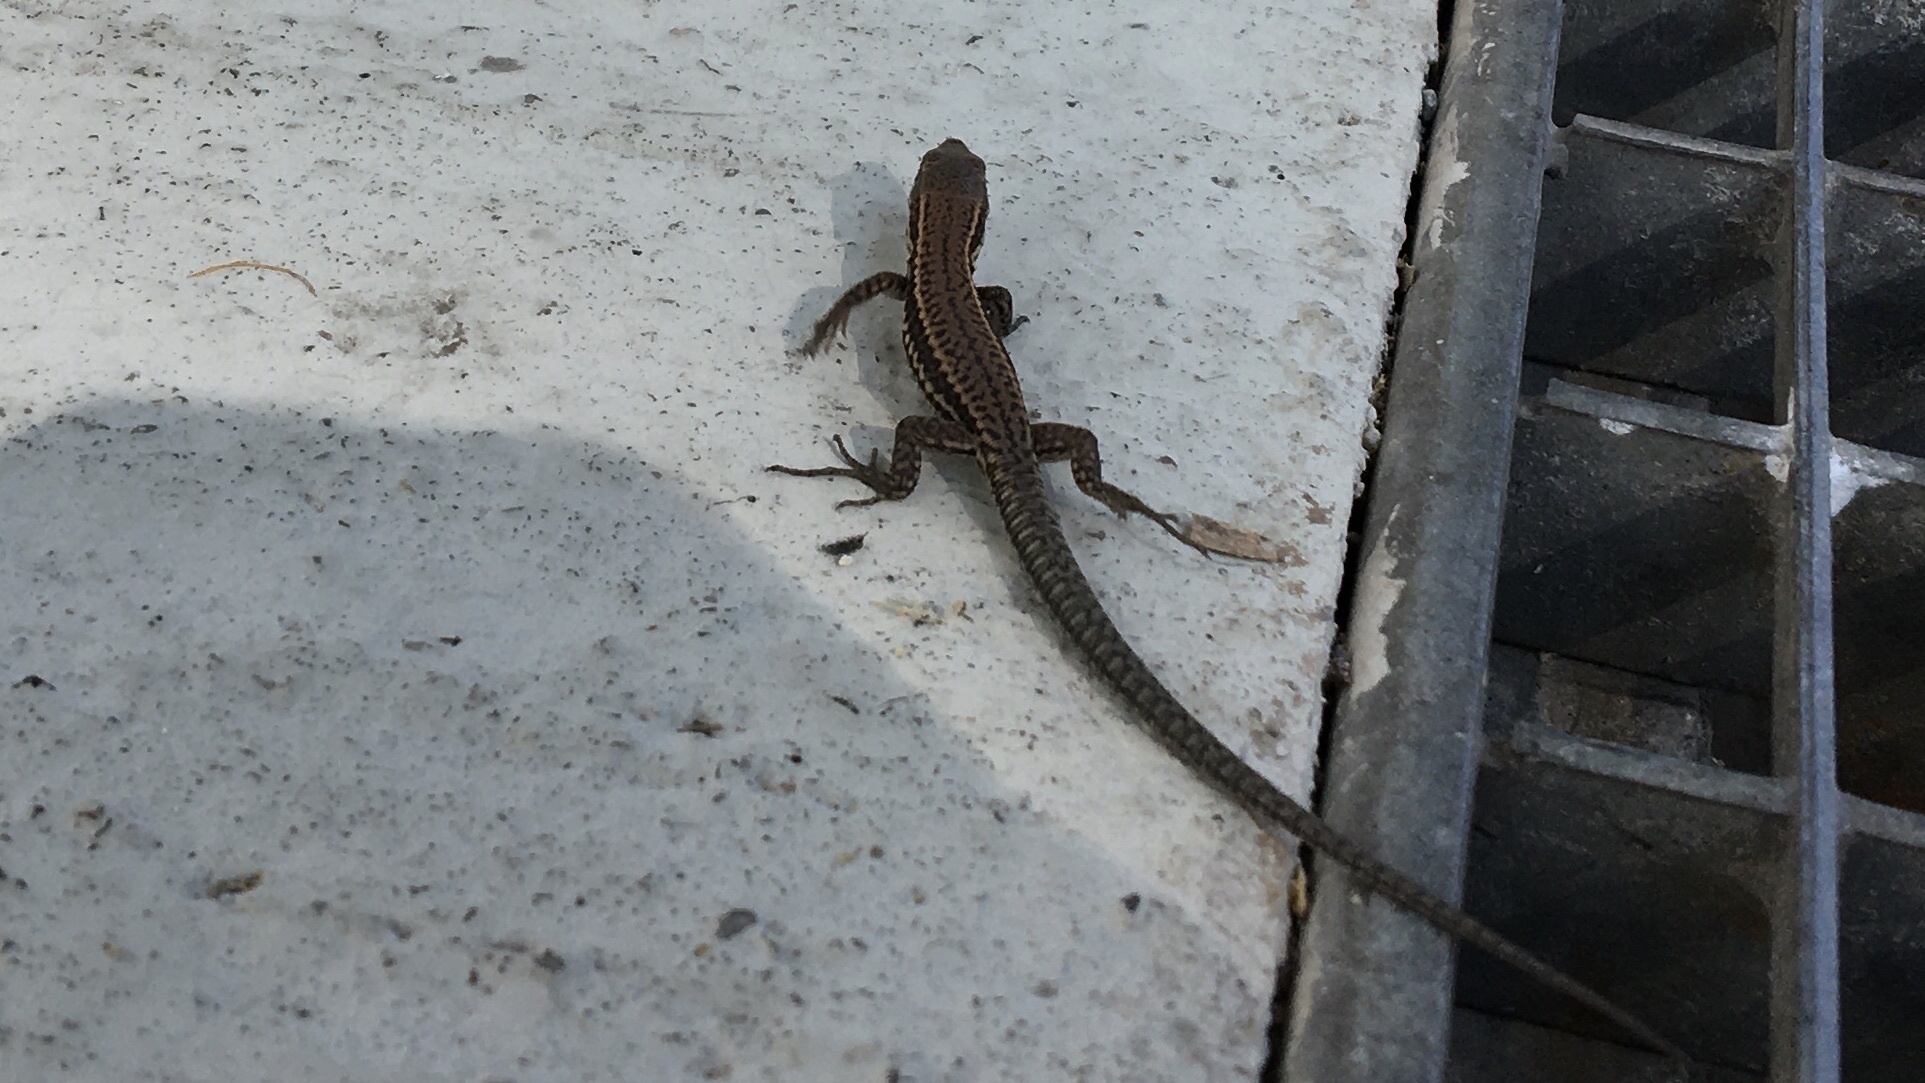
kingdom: Animalia
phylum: Chordata
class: Squamata
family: Lacertidae
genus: Podarcis
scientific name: Podarcis muralis
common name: Common wall lizard
